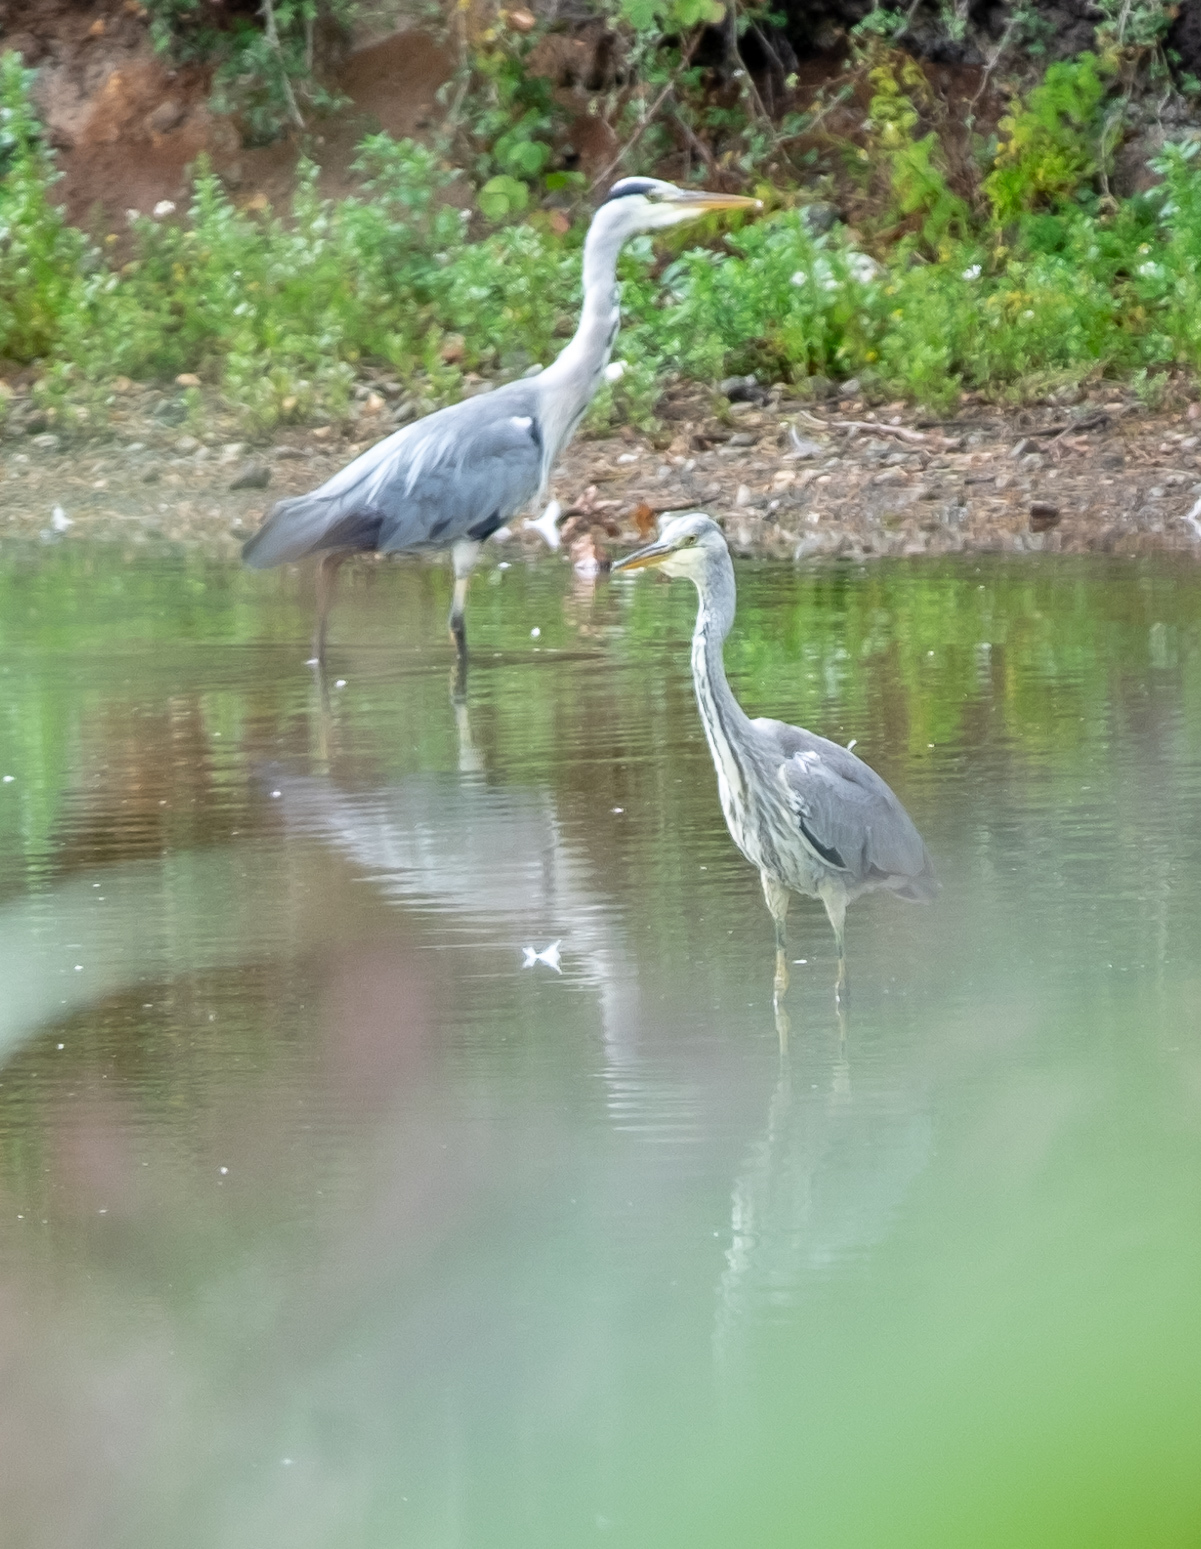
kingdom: Animalia
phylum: Chordata
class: Aves
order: Pelecaniformes
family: Ardeidae
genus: Ardea
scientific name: Ardea cinerea
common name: Grey heron
